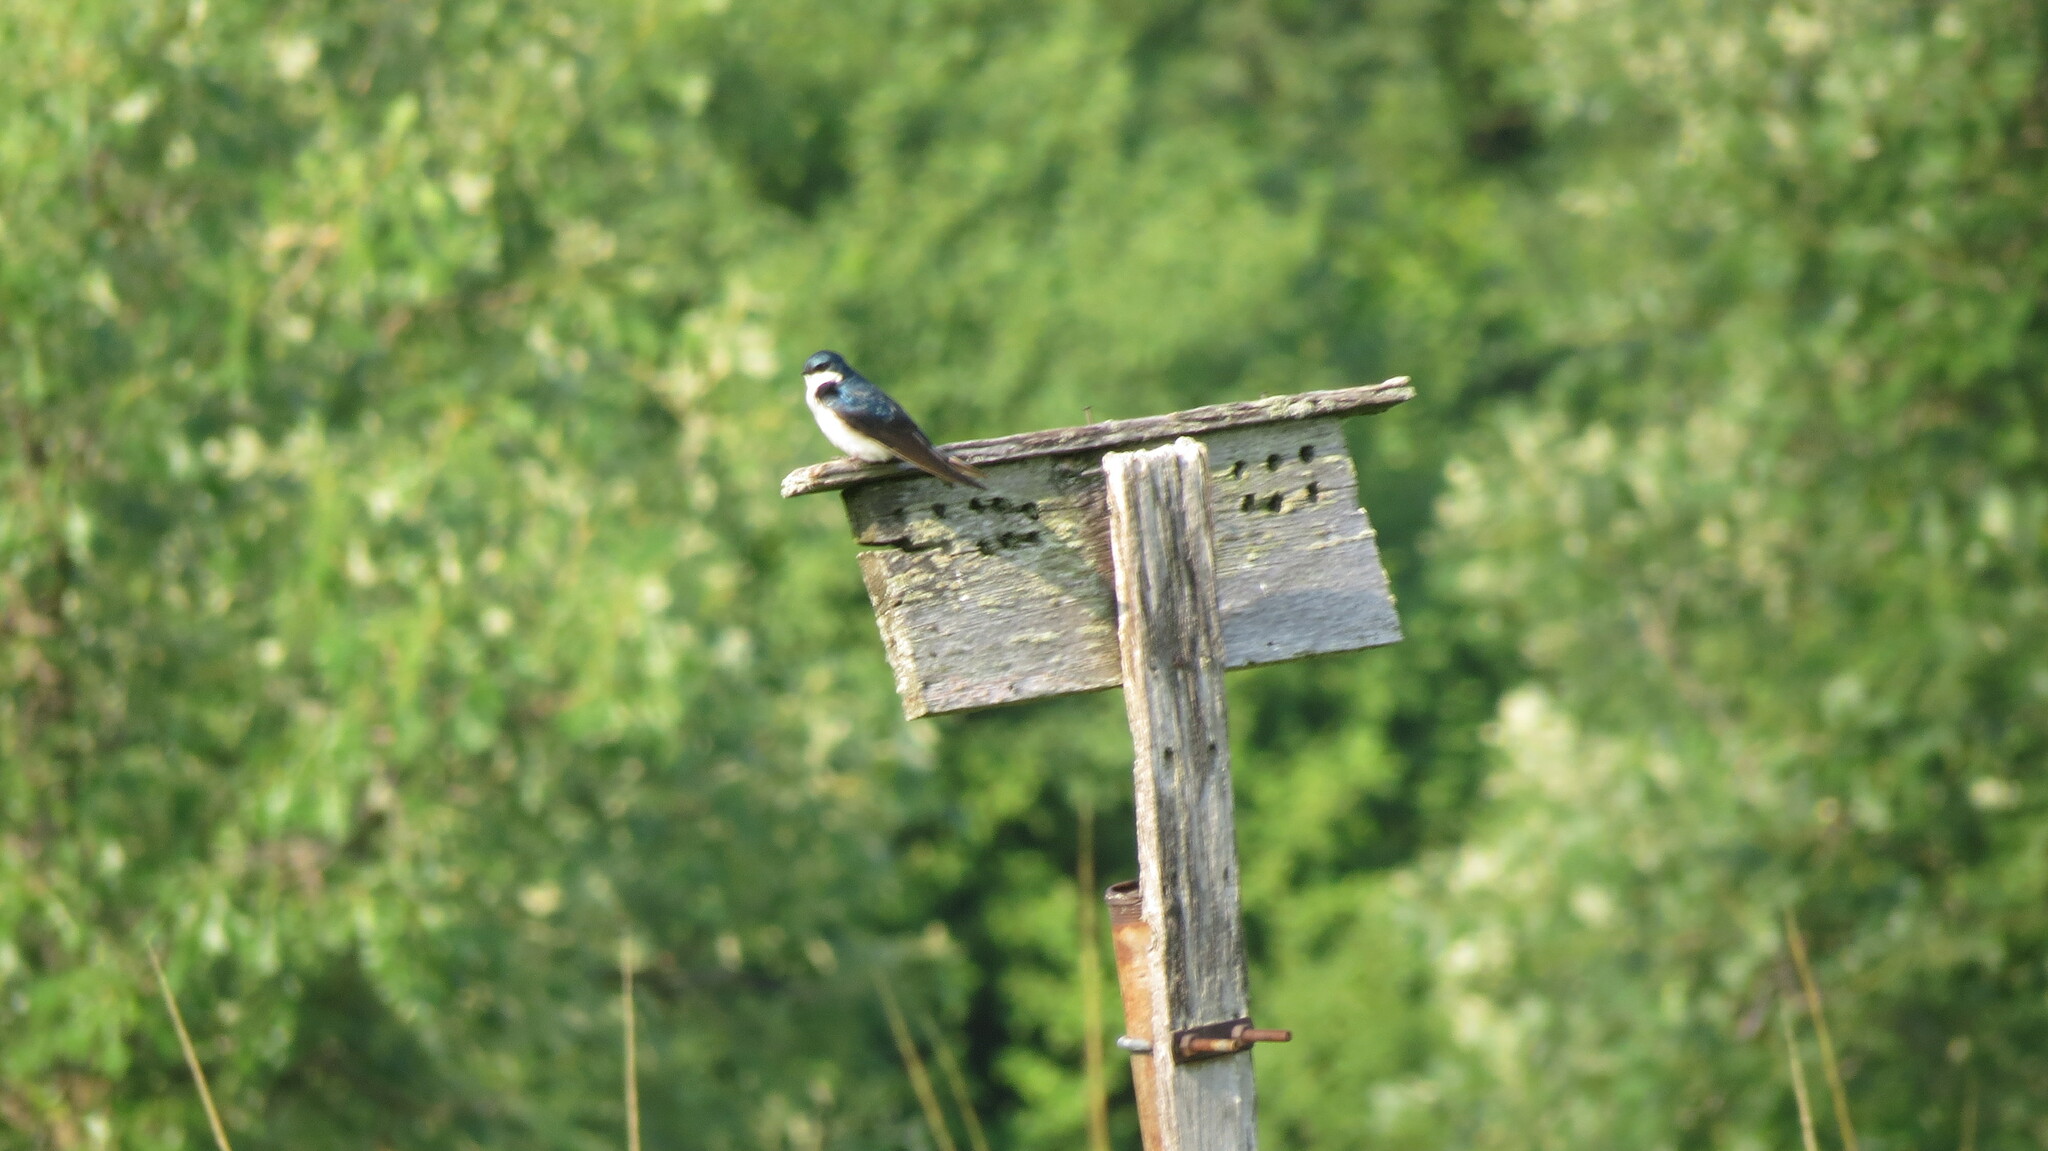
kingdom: Animalia
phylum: Chordata
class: Aves
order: Passeriformes
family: Hirundinidae
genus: Tachycineta
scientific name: Tachycineta bicolor
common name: Tree swallow
